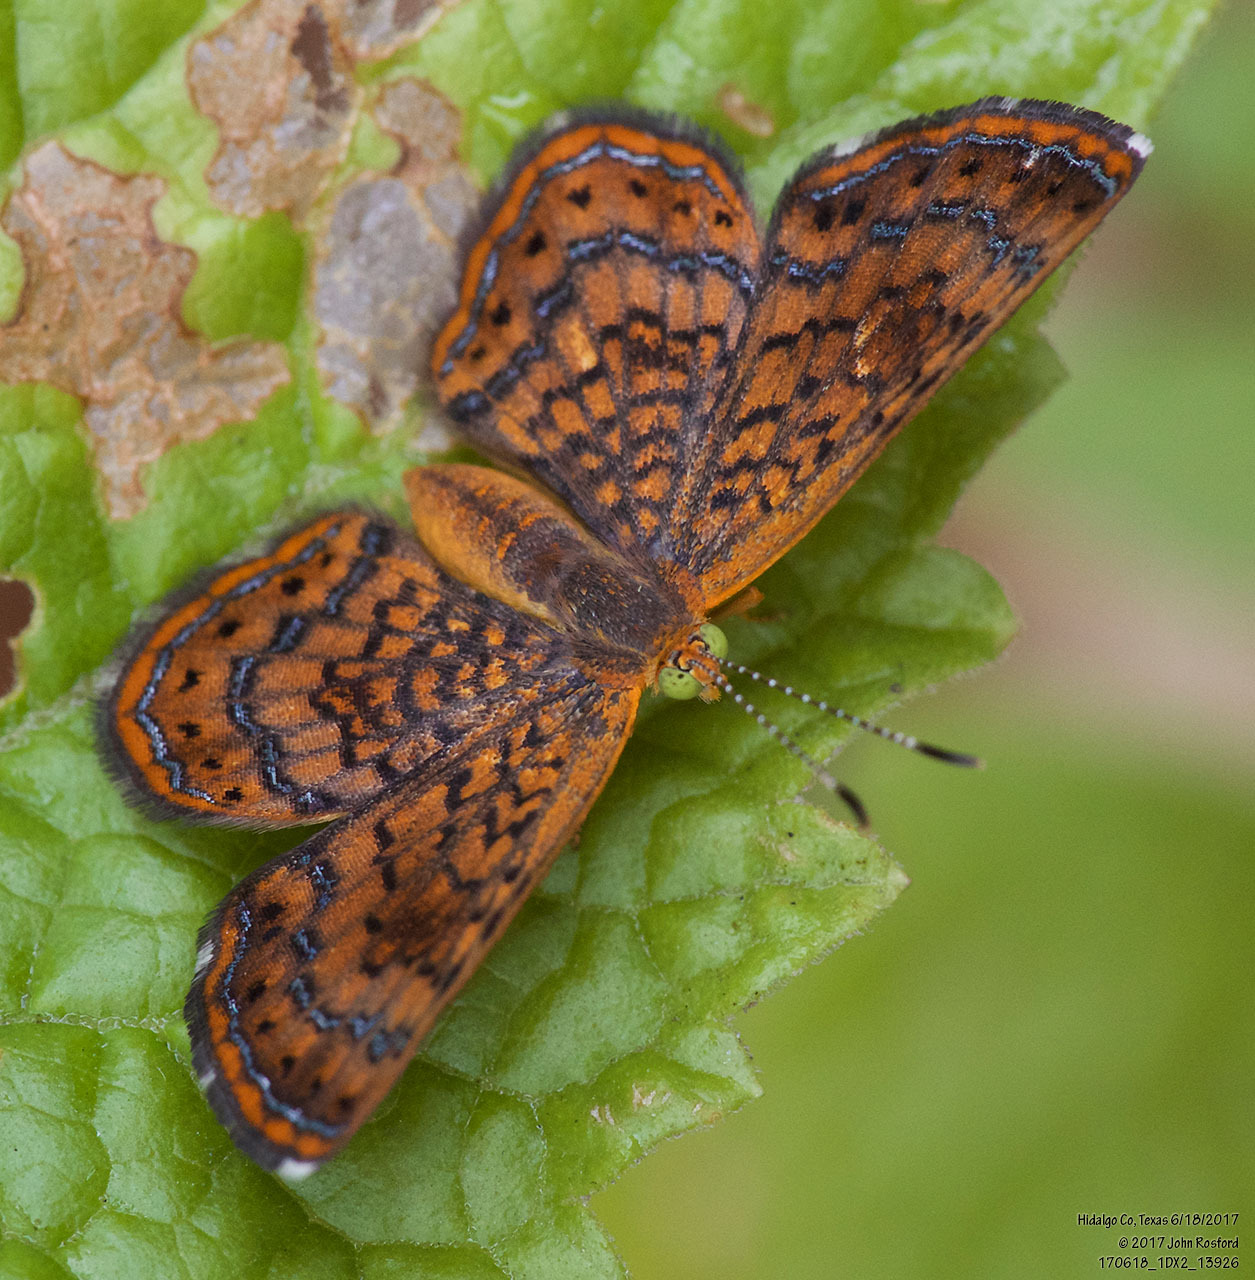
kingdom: Animalia
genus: Calephelis
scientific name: Calephelis nemesis
